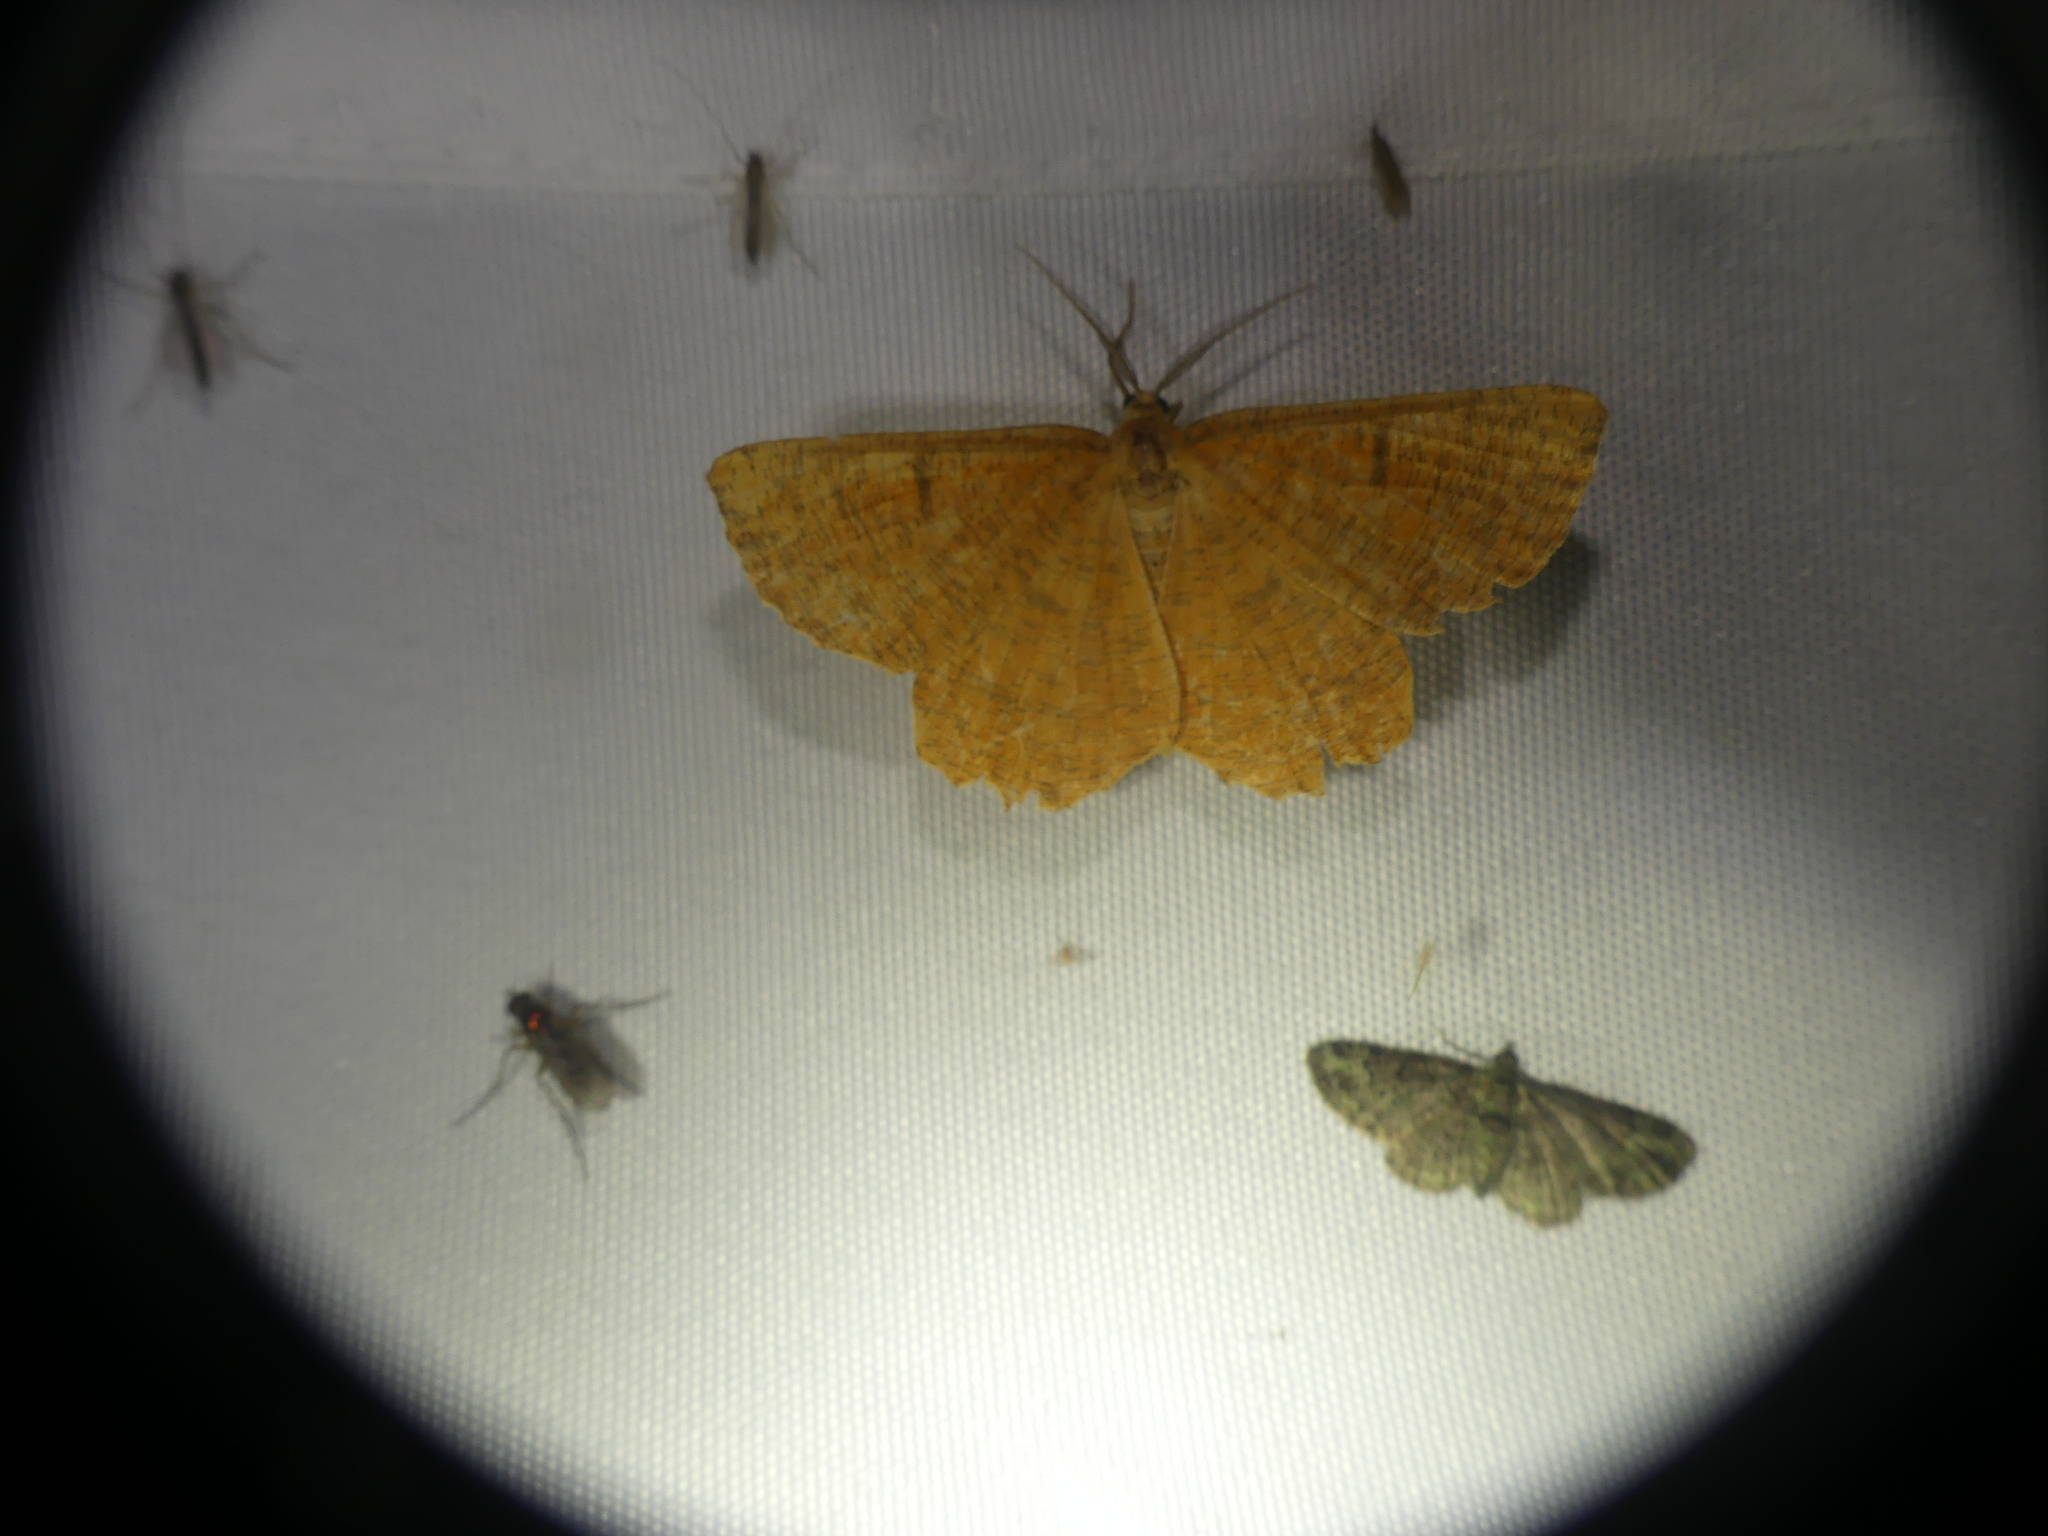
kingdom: Animalia
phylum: Arthropoda
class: Insecta
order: Lepidoptera
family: Geometridae
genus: Angerona
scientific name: Angerona prunaria
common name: Orange moth
